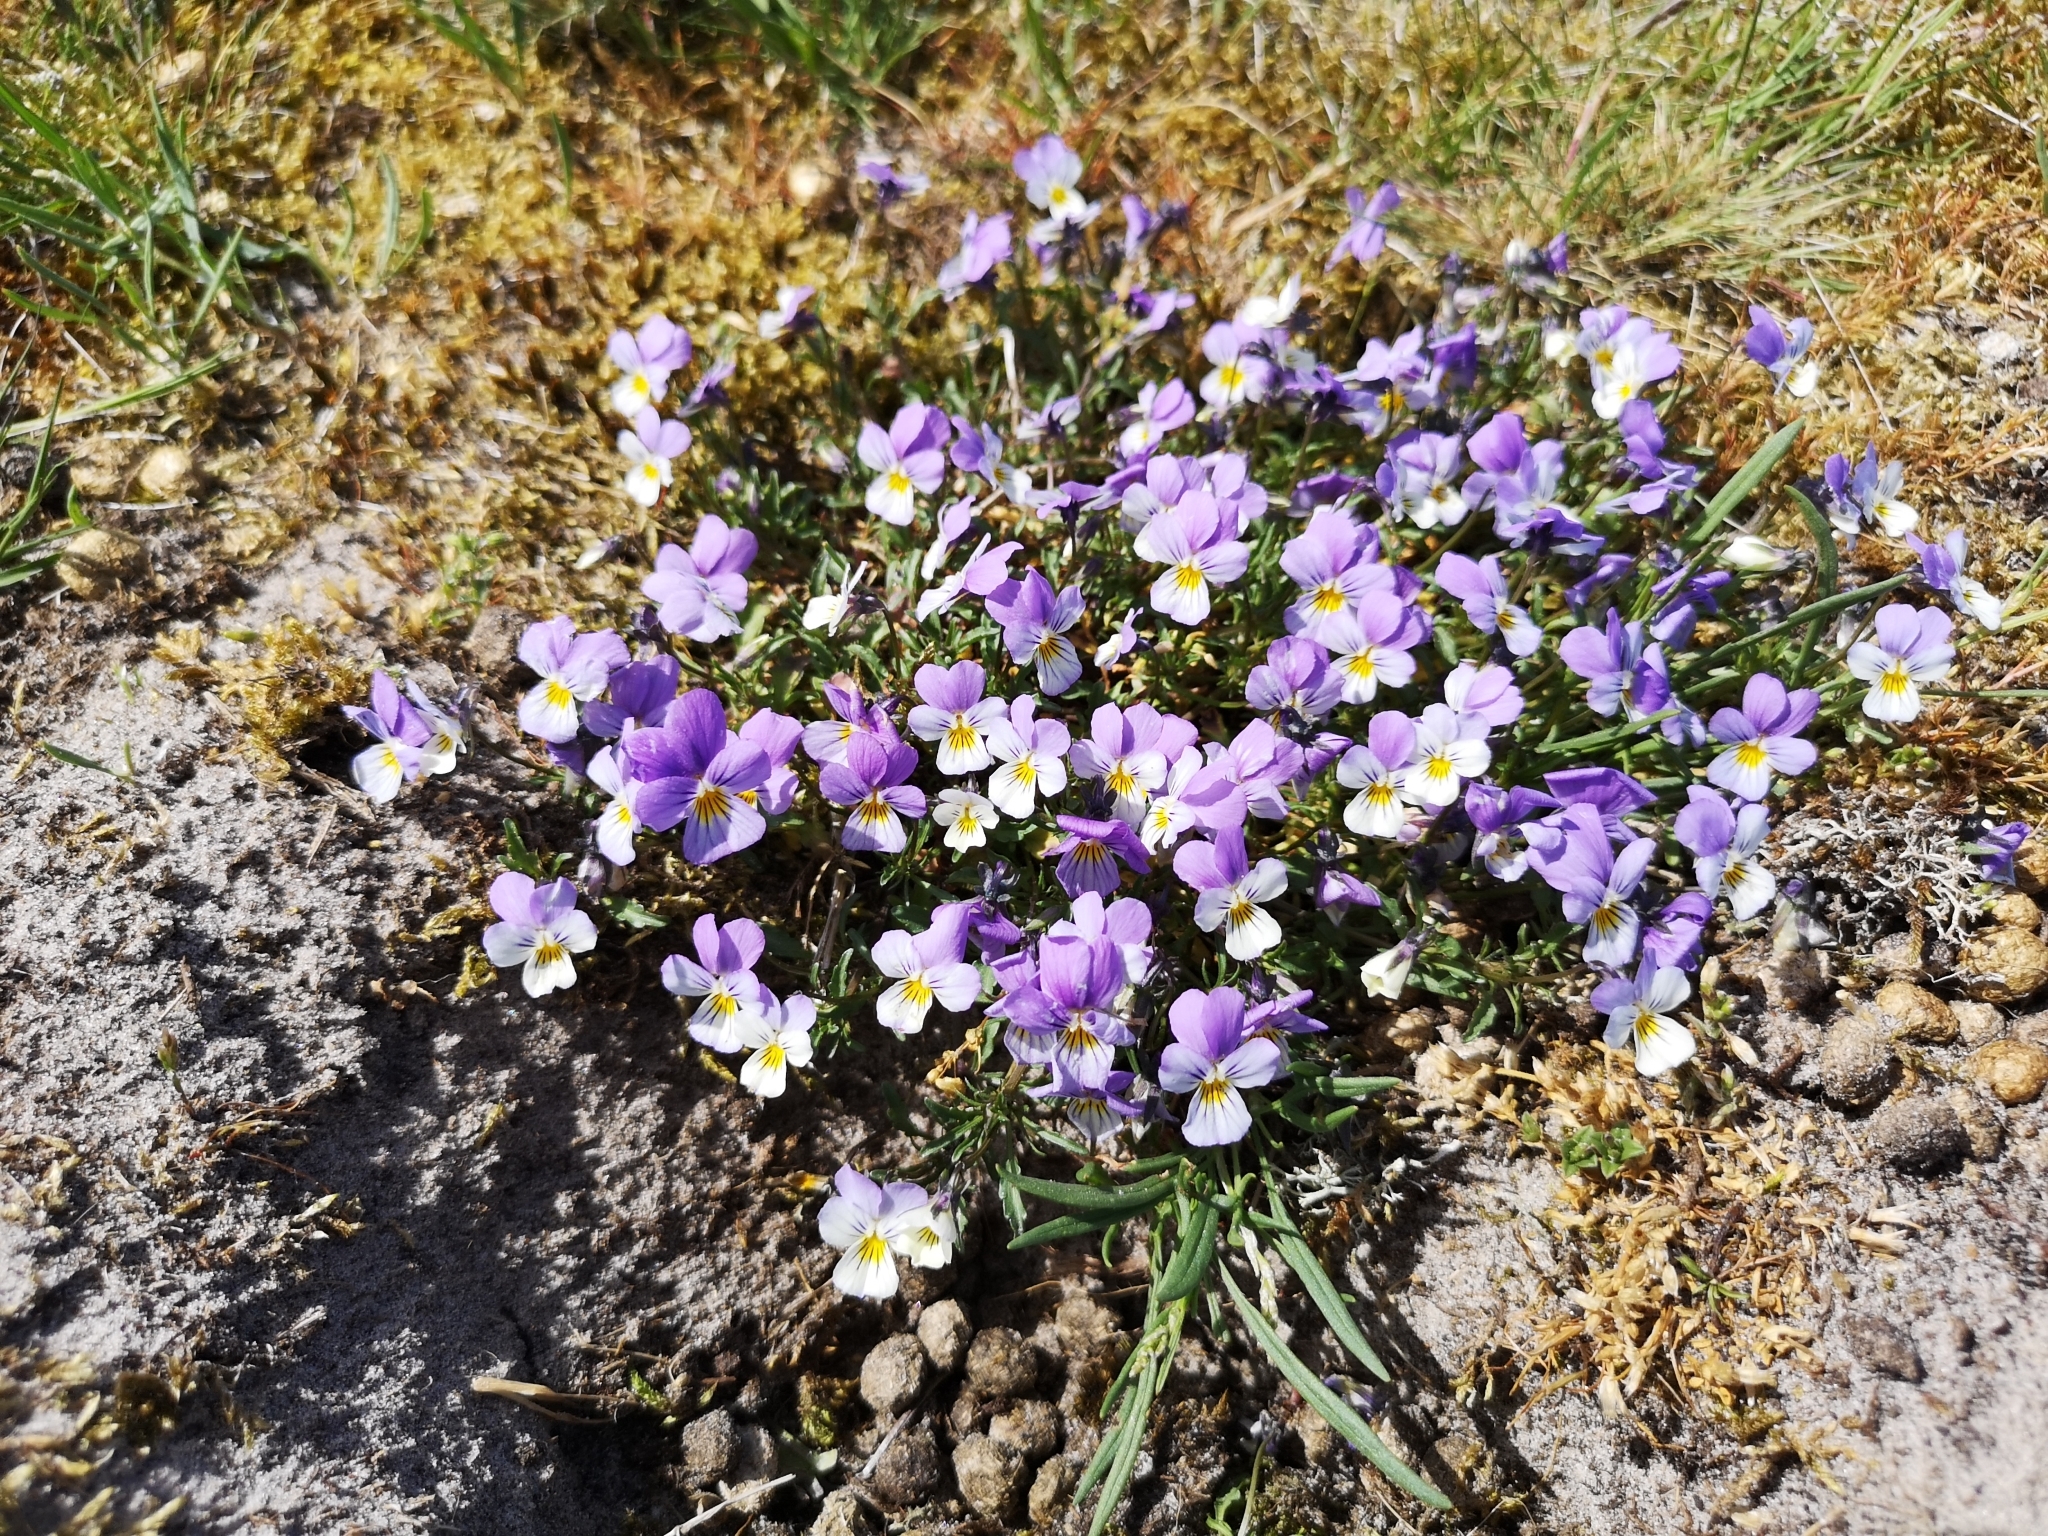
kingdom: Plantae
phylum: Tracheophyta
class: Magnoliopsida
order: Malpighiales
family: Violaceae
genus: Viola
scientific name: Viola tricolor
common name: Pansy
